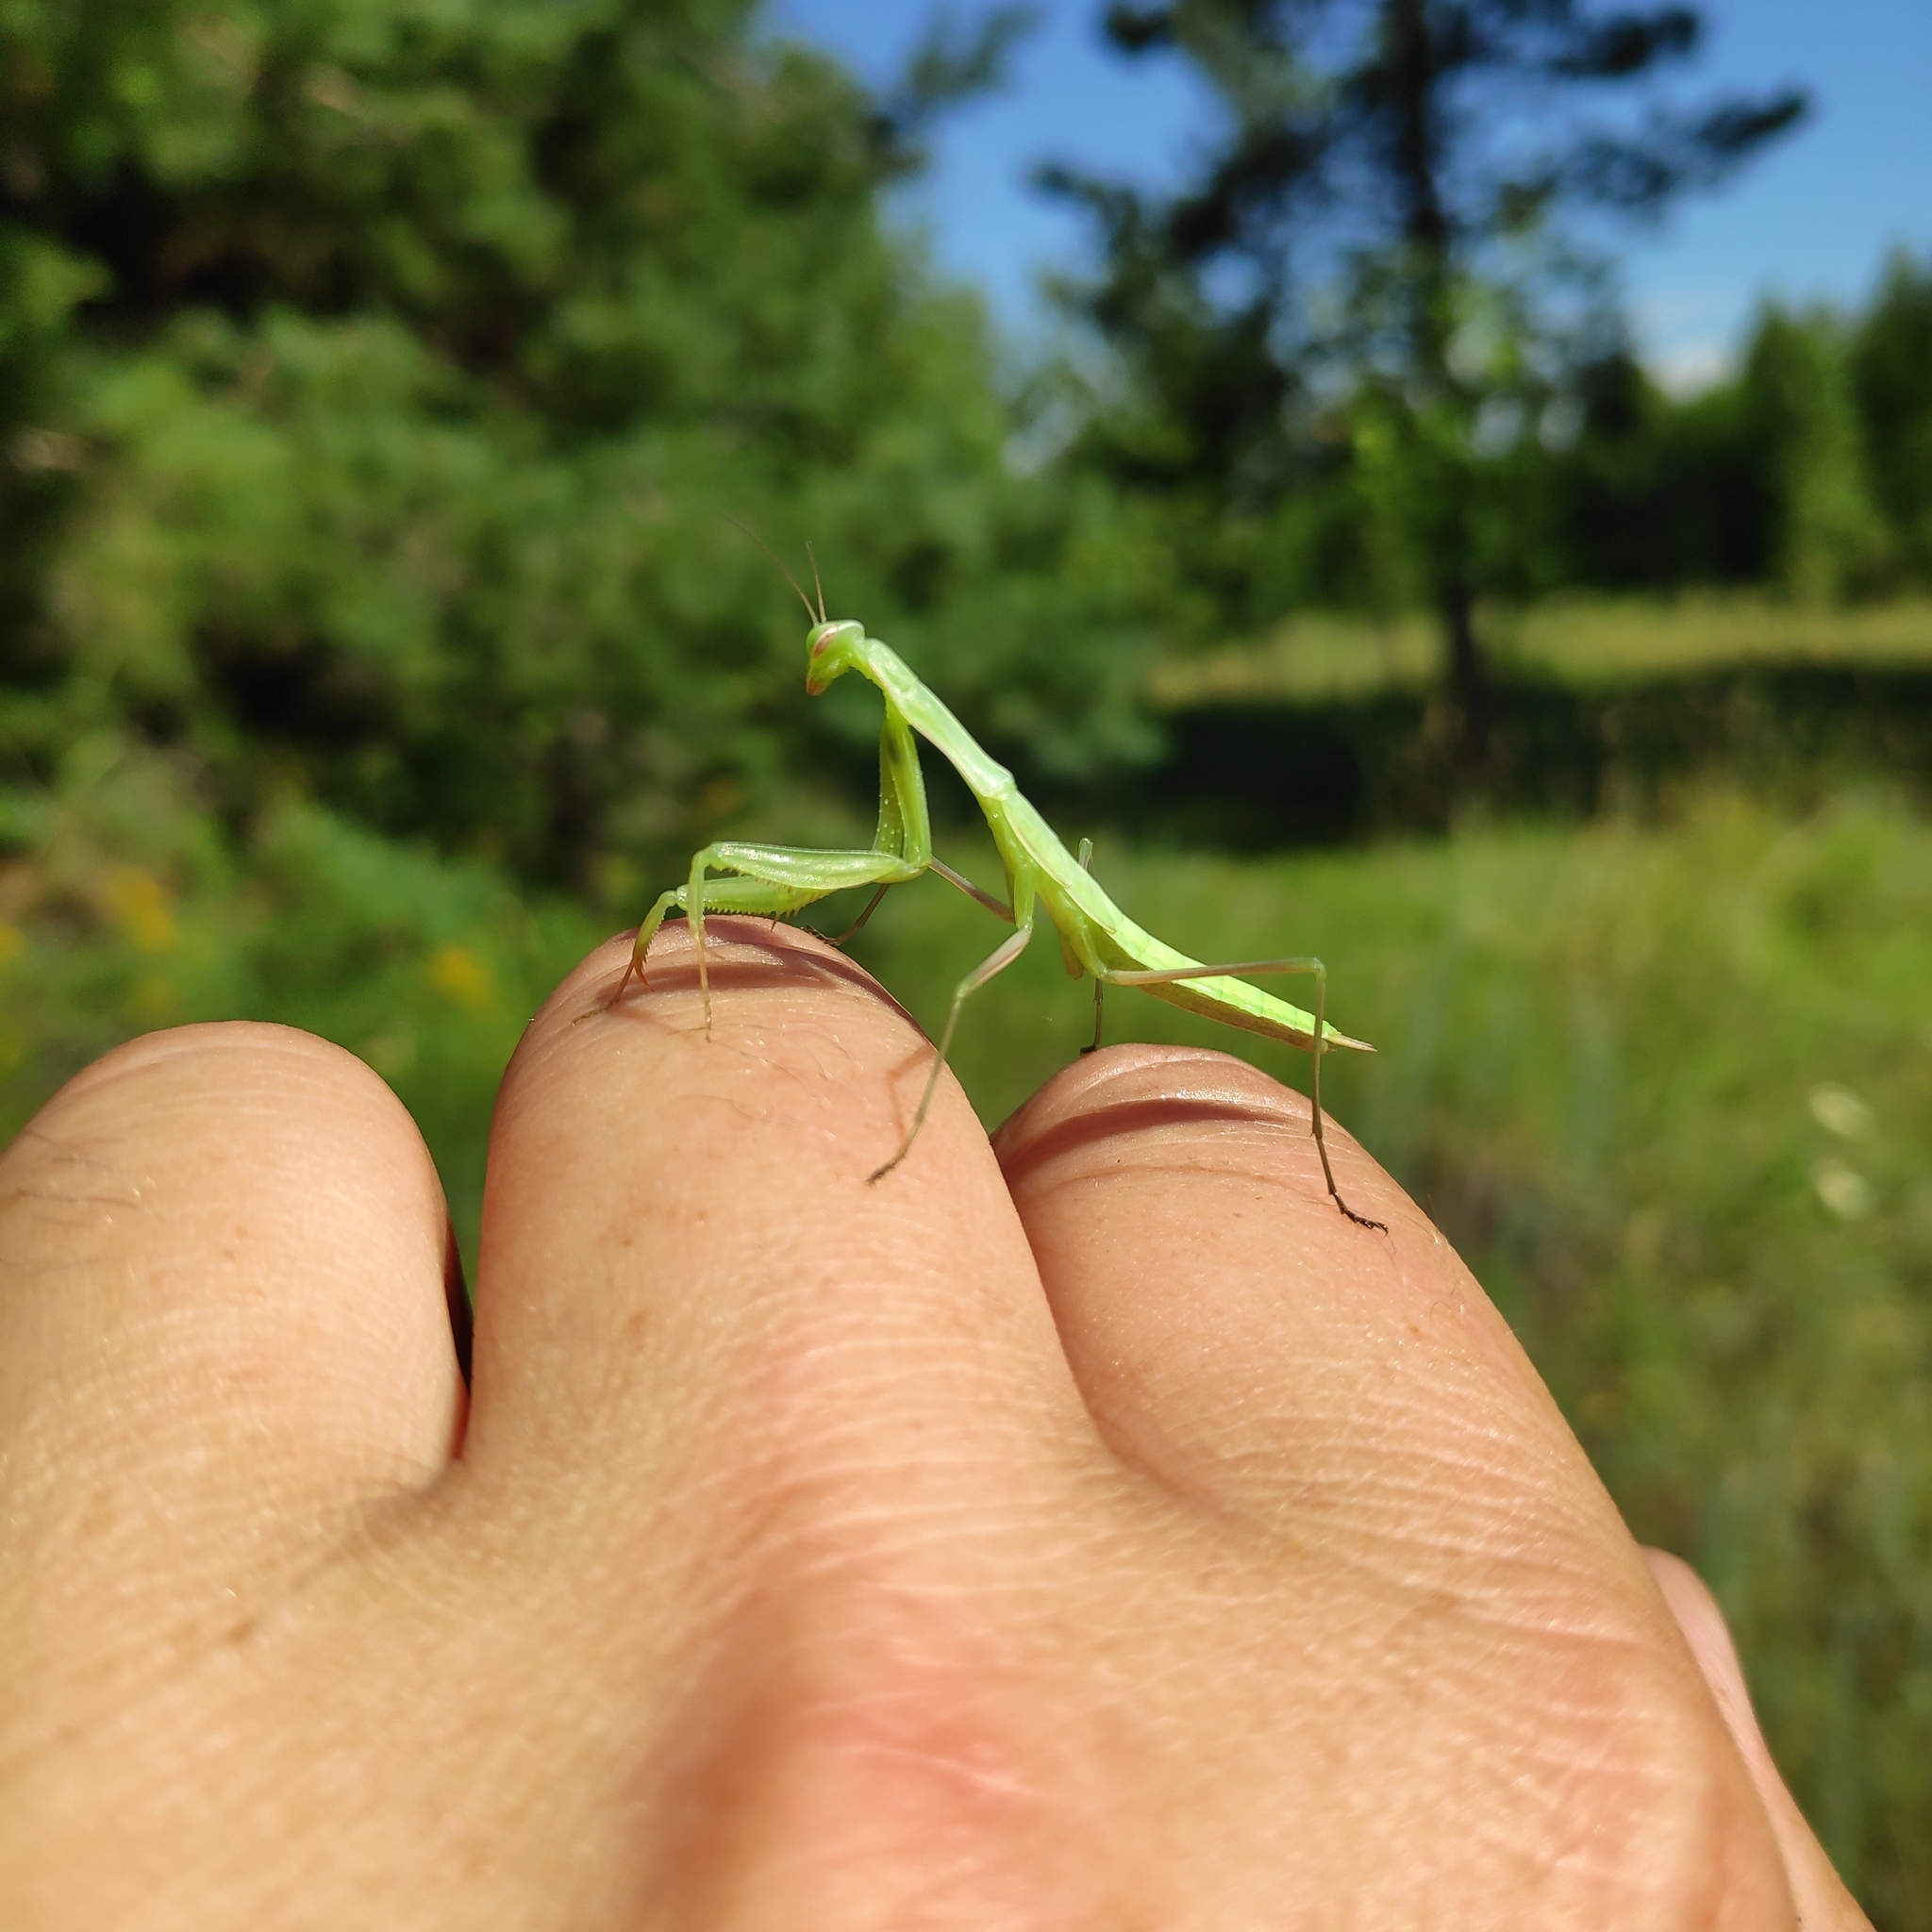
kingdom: Animalia
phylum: Arthropoda
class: Insecta
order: Mantodea
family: Mantidae
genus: Mantis
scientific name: Mantis religiosa
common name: Praying mantis
